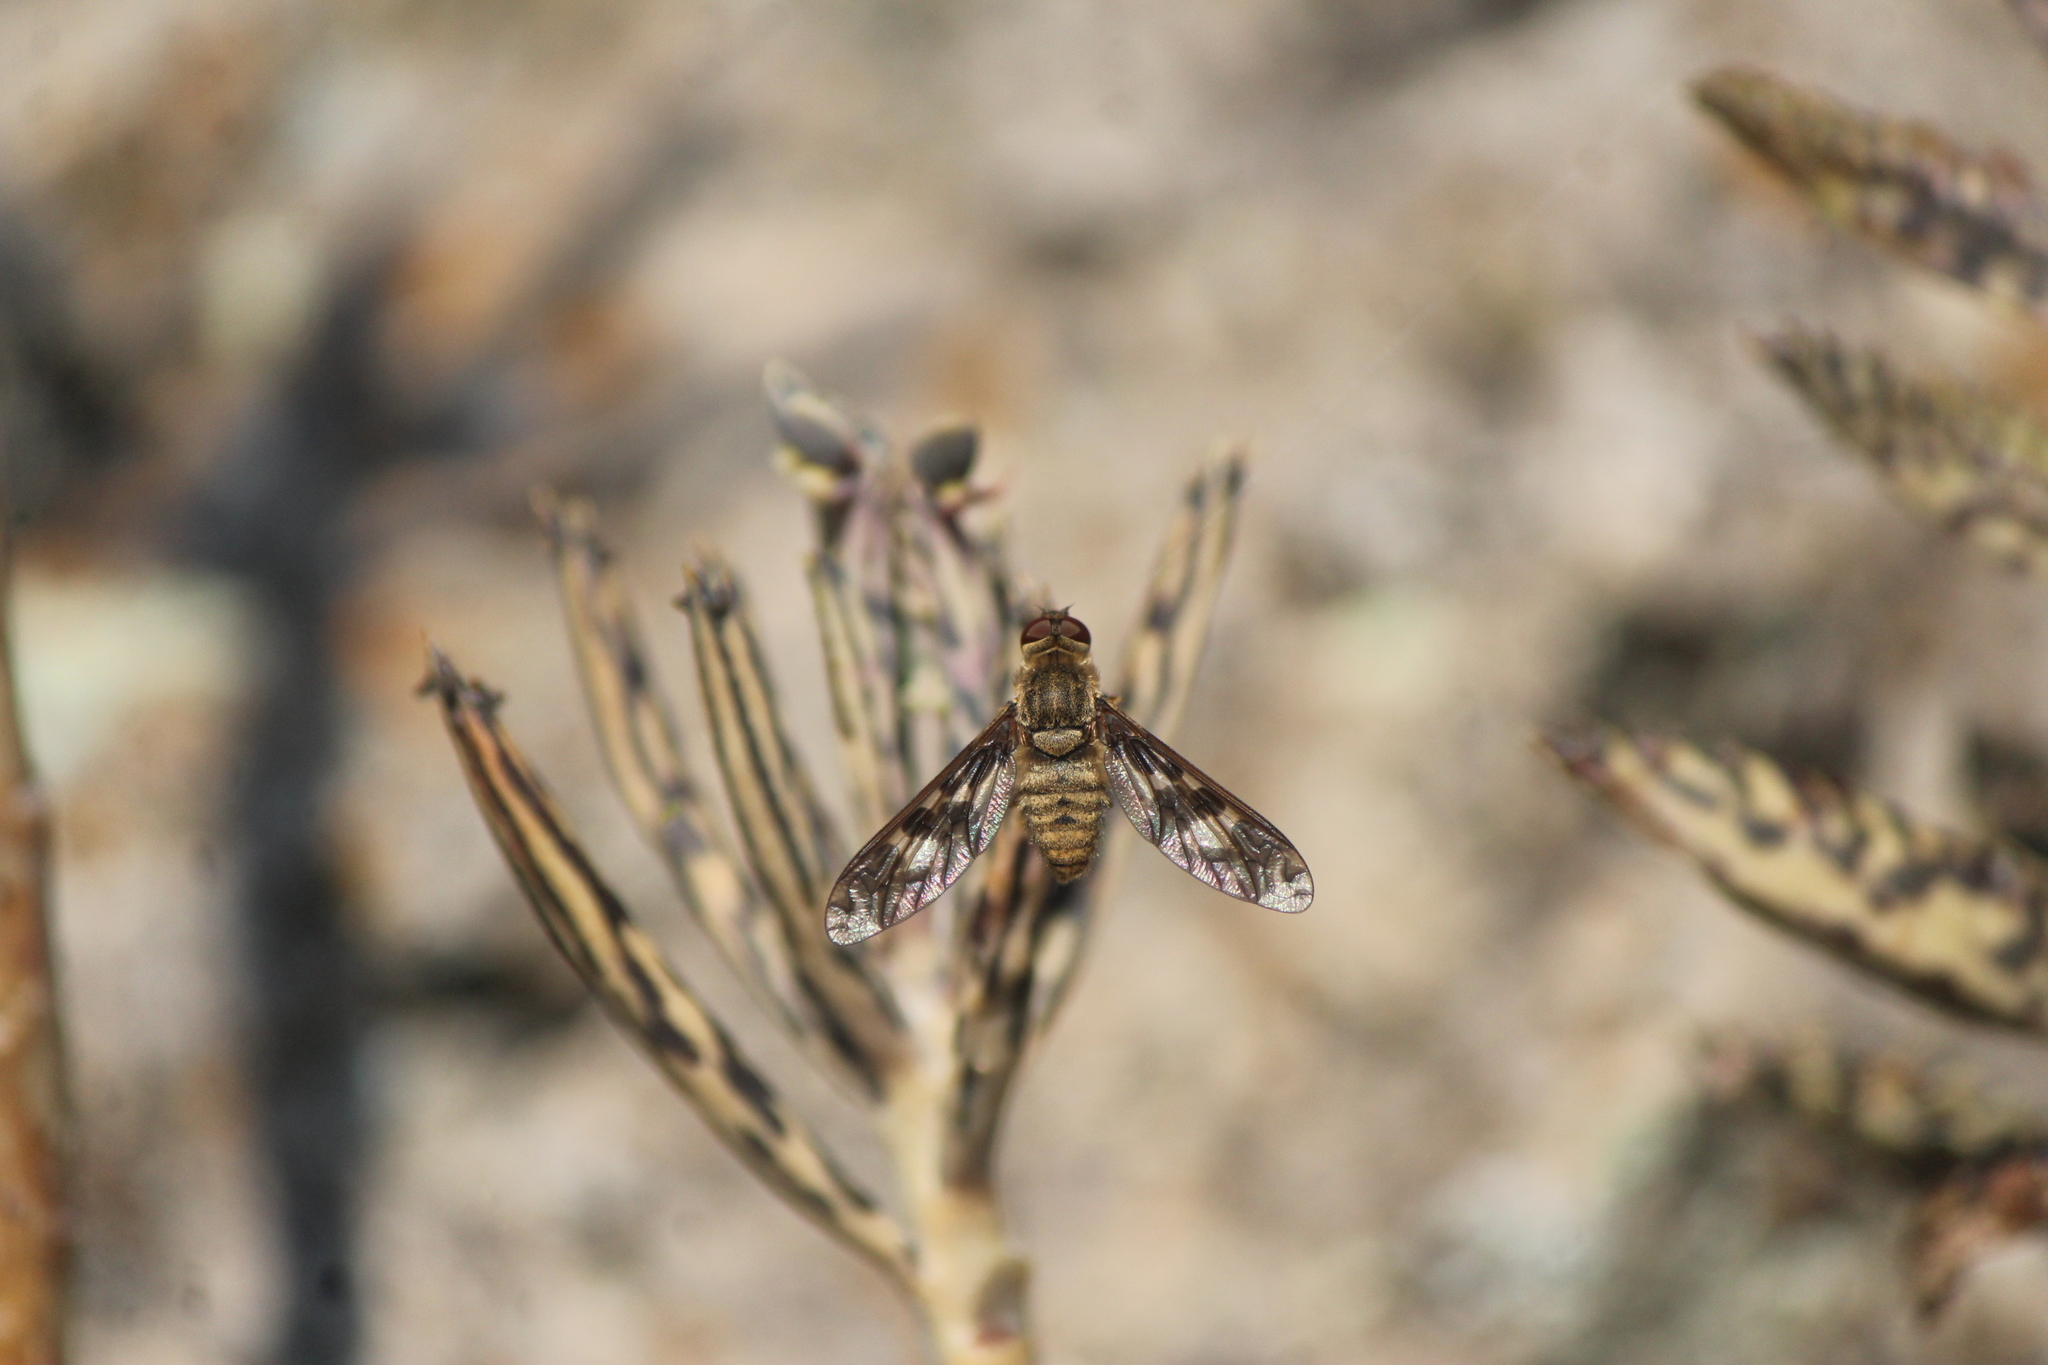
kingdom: Animalia
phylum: Arthropoda
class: Insecta
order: Diptera
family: Bombyliidae
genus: Dipalta
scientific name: Dipalta serpentina
